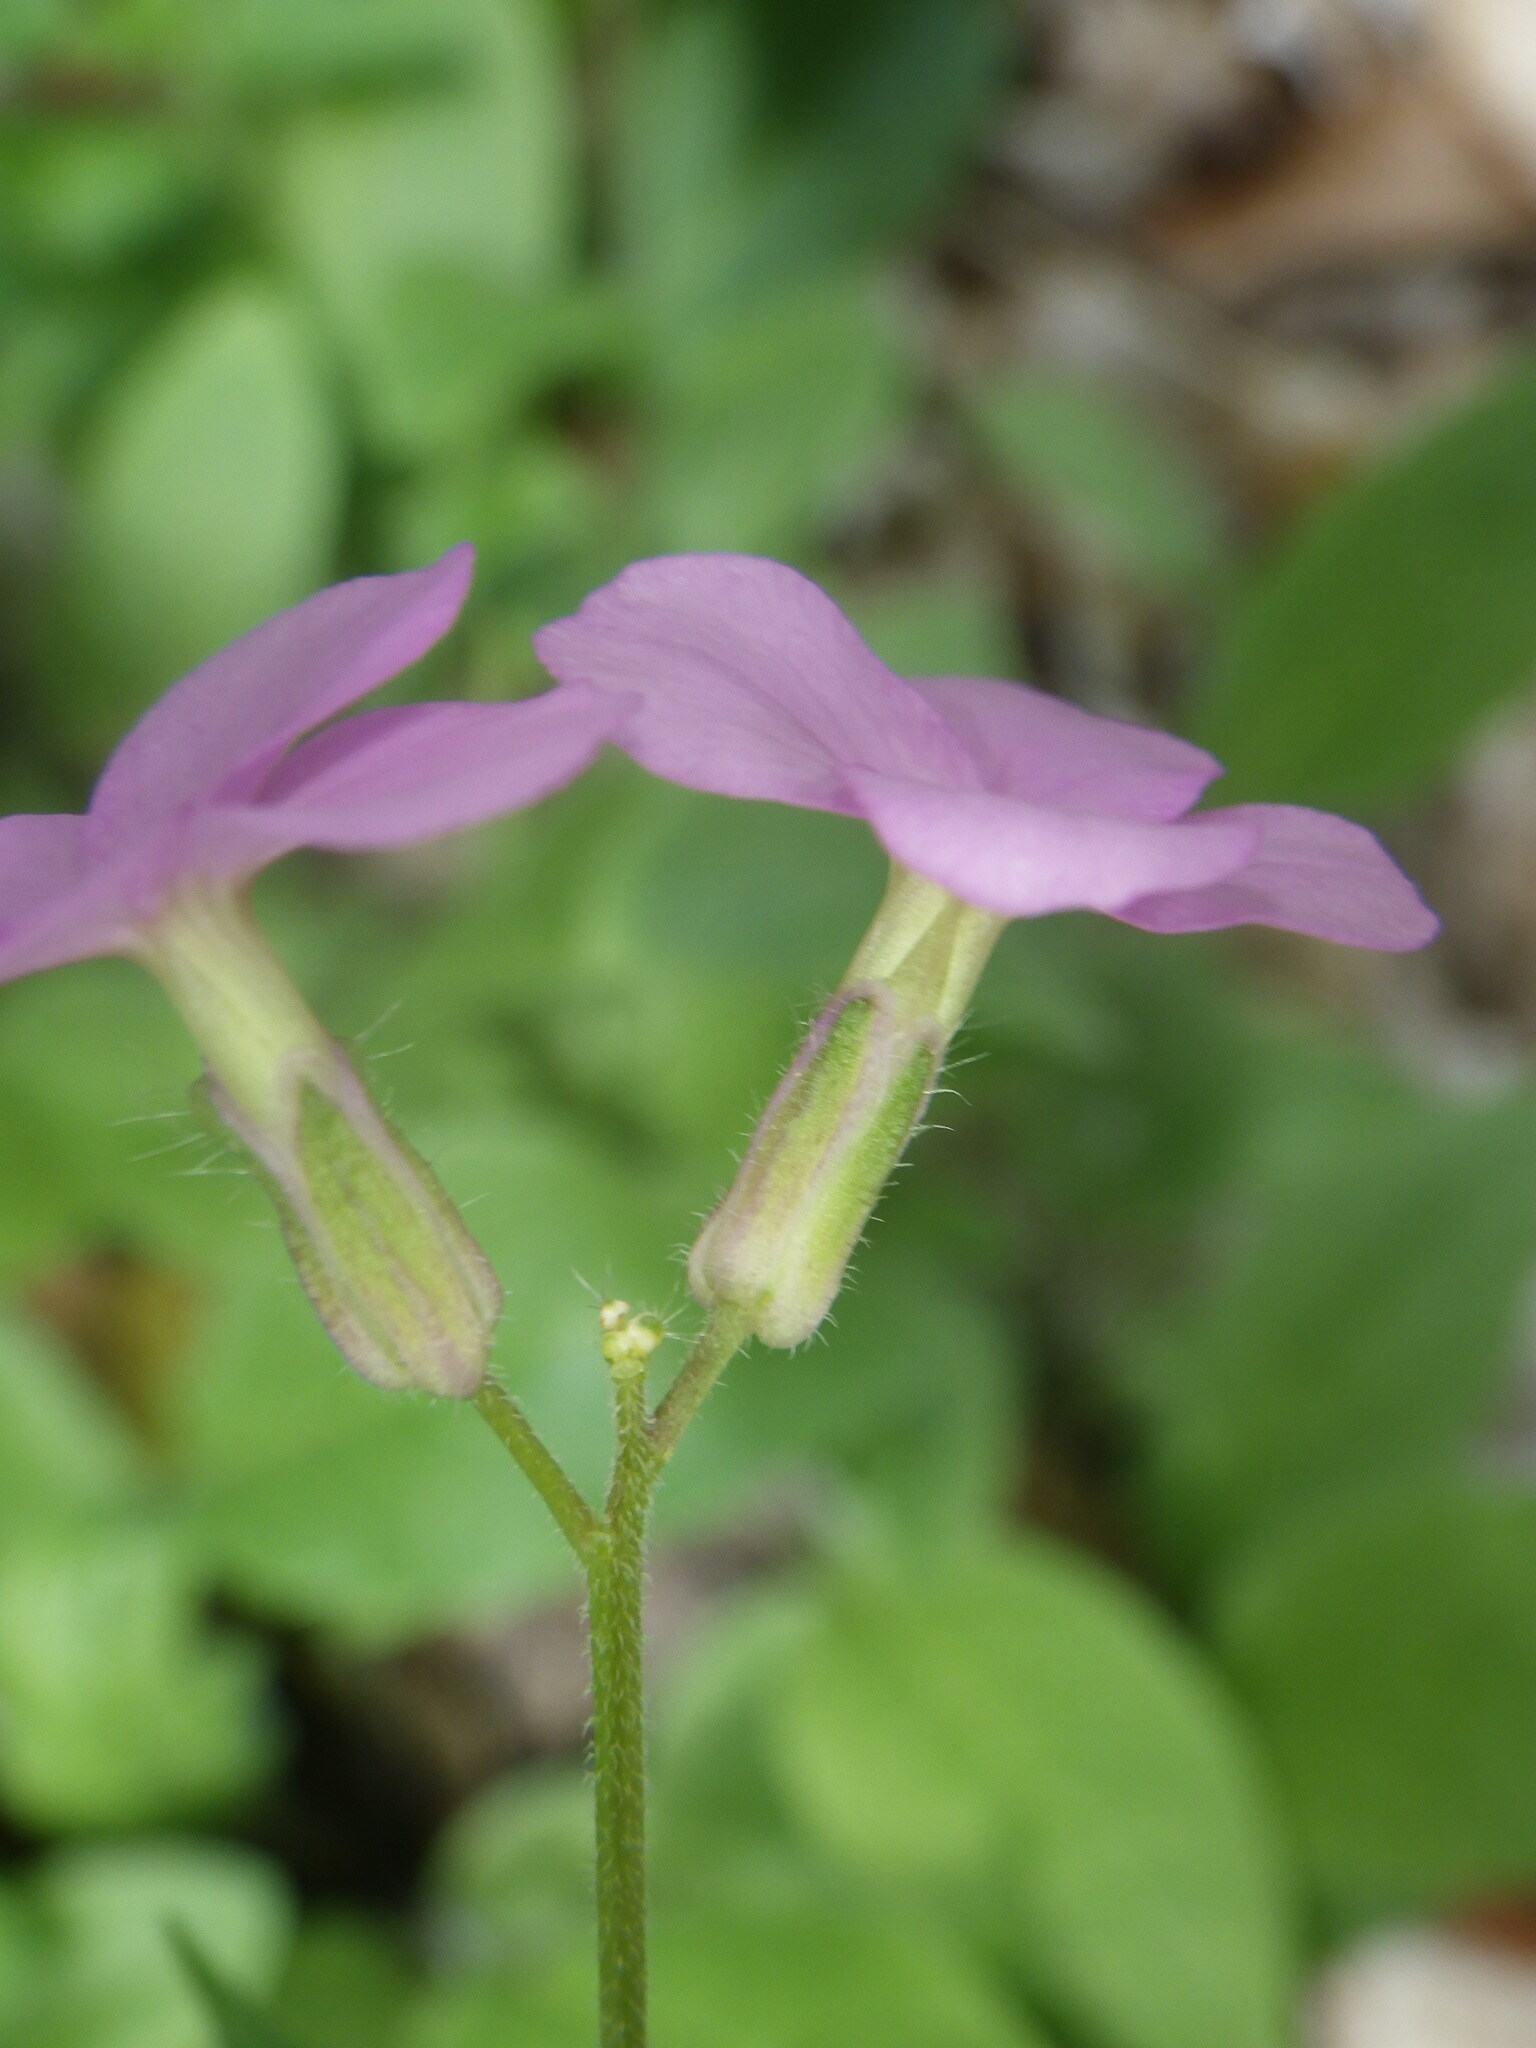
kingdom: Plantae
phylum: Tracheophyta
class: Magnoliopsida
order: Brassicales
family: Brassicaceae
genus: Hesperis
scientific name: Hesperis matronalis
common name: Dame's-violet
